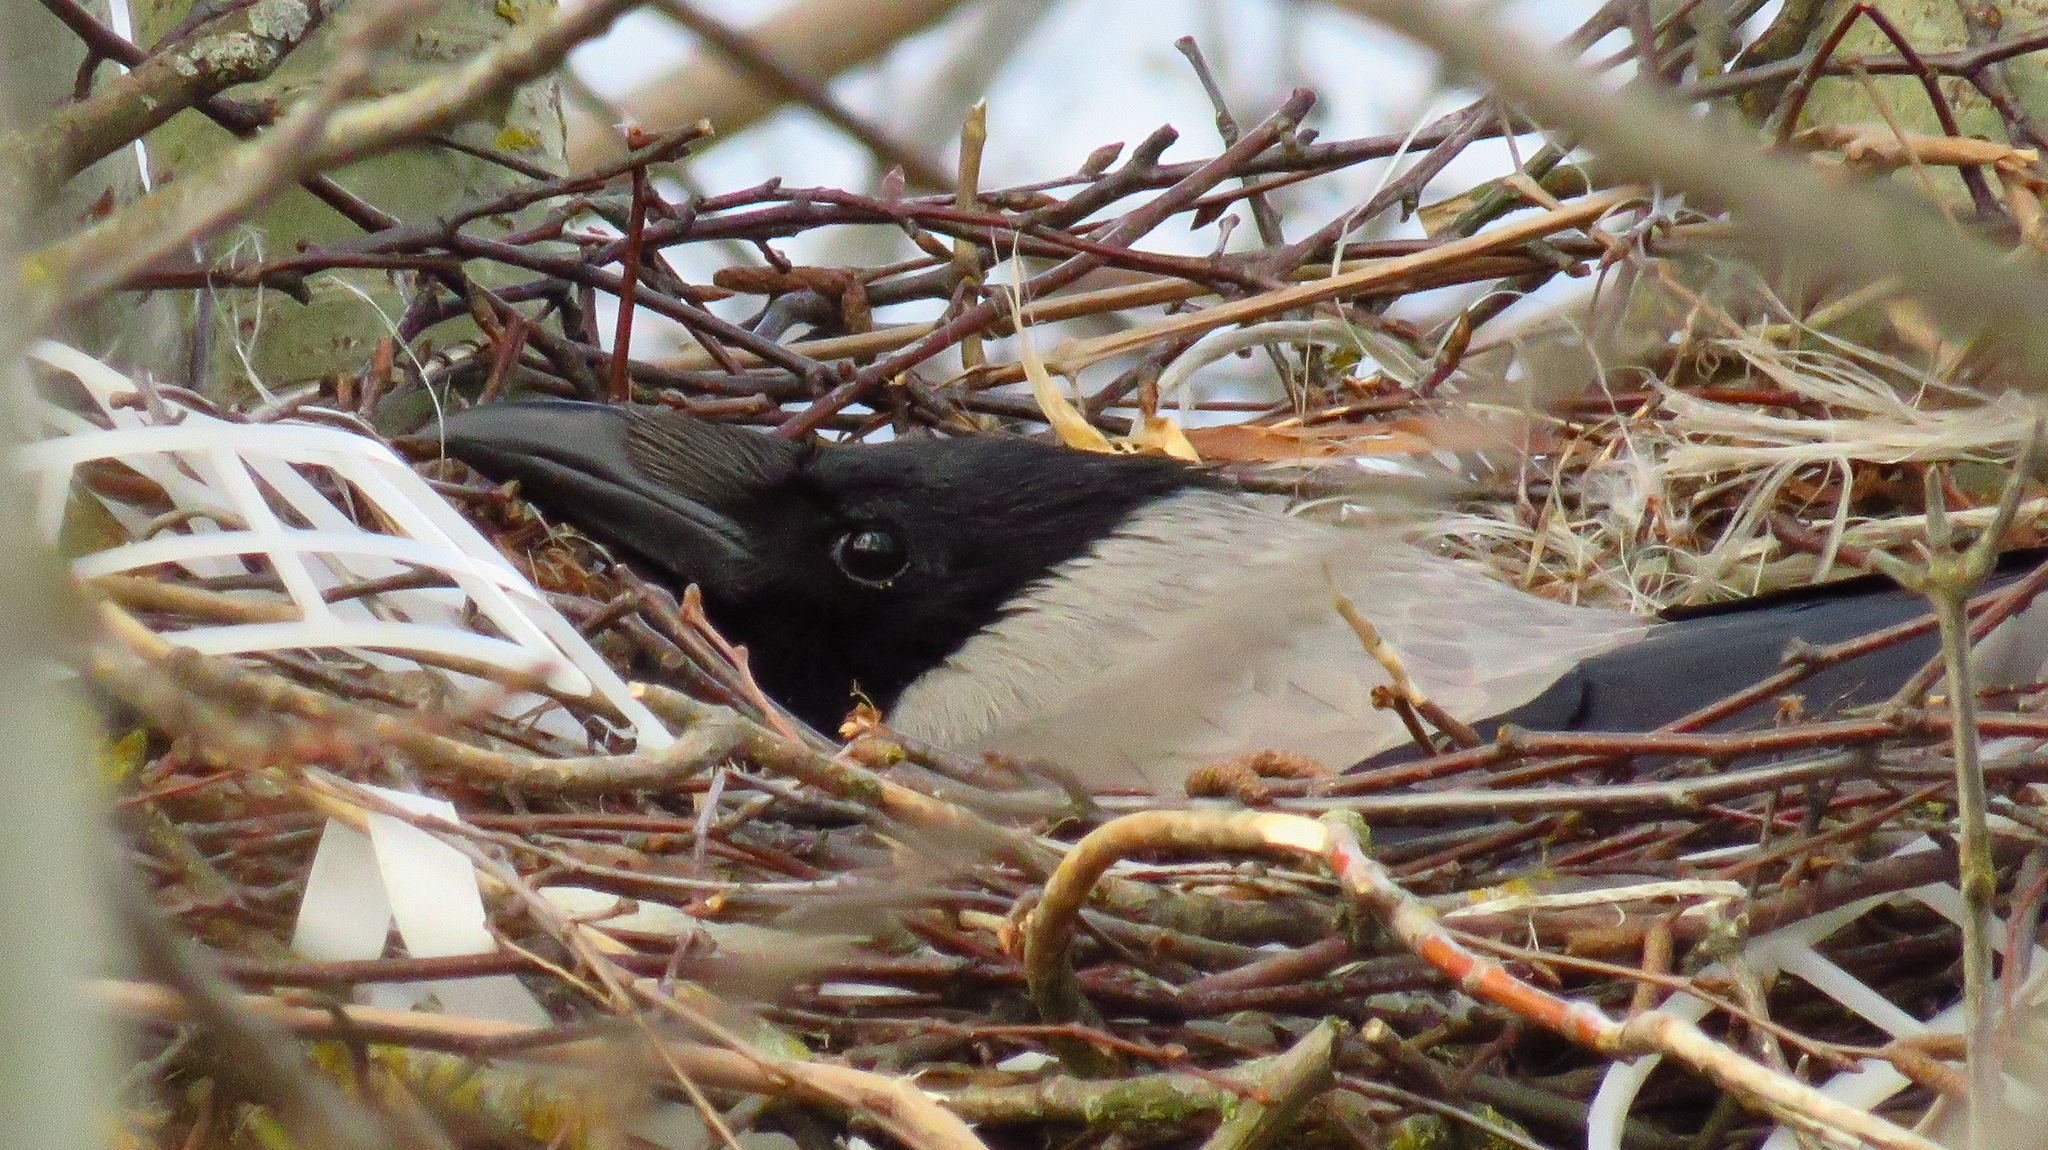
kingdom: Animalia
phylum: Chordata
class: Aves
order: Passeriformes
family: Corvidae
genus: Corvus
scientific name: Corvus cornix
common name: Hooded crow
